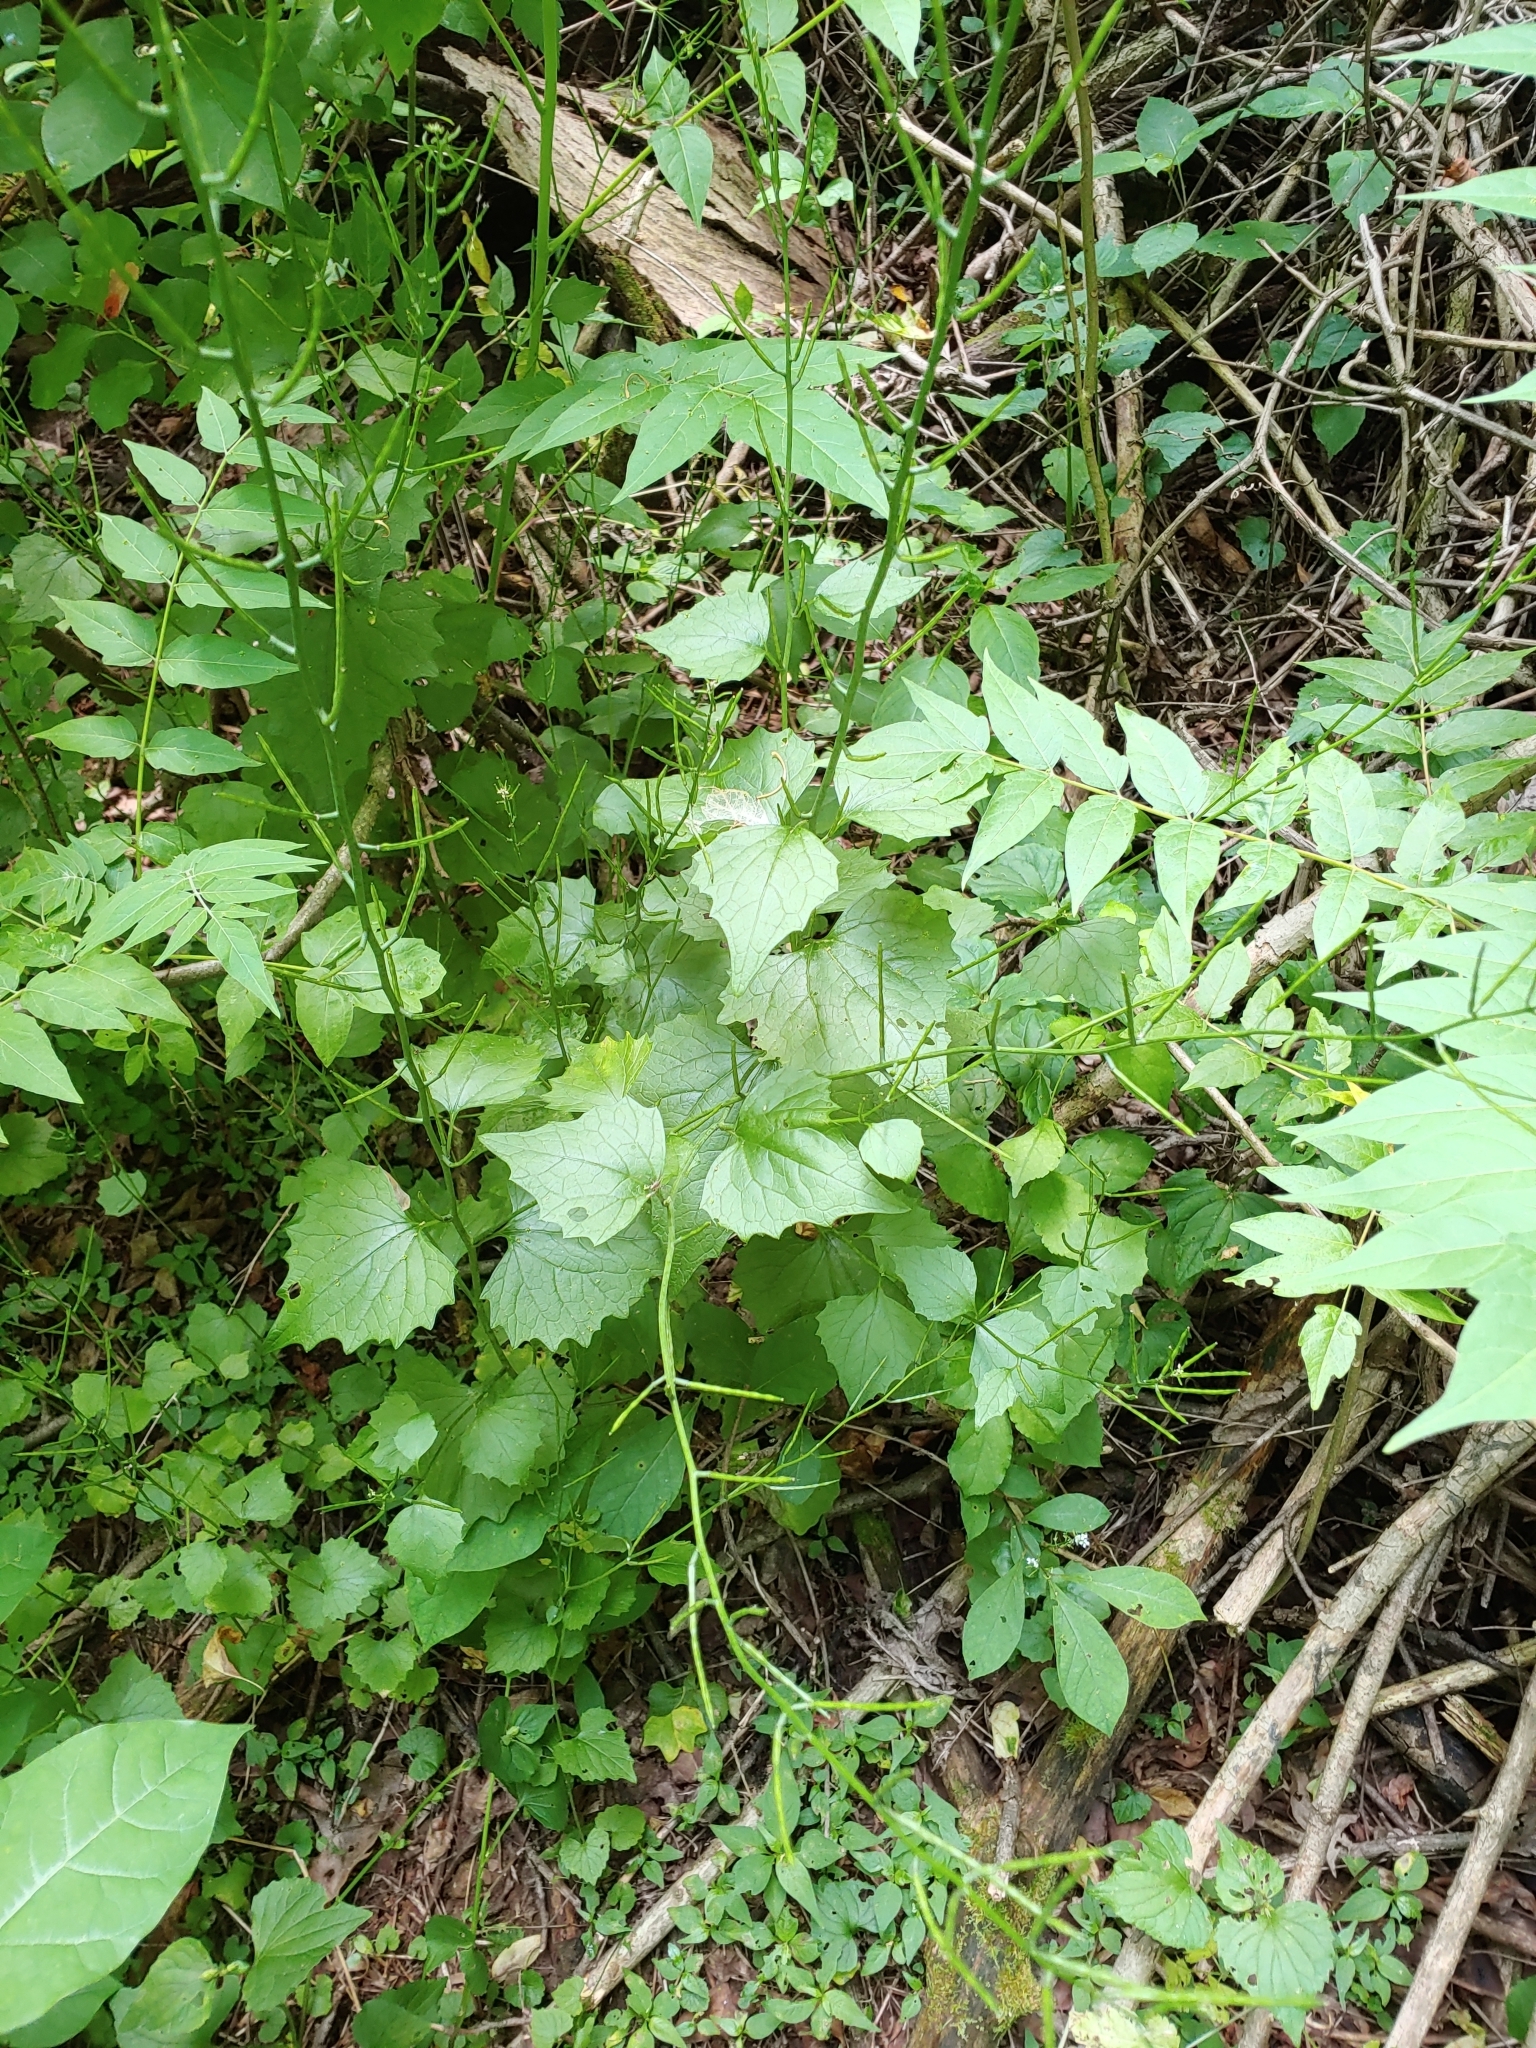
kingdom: Plantae
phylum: Tracheophyta
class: Magnoliopsida
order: Brassicales
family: Brassicaceae
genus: Alliaria
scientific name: Alliaria petiolata
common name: Garlic mustard
